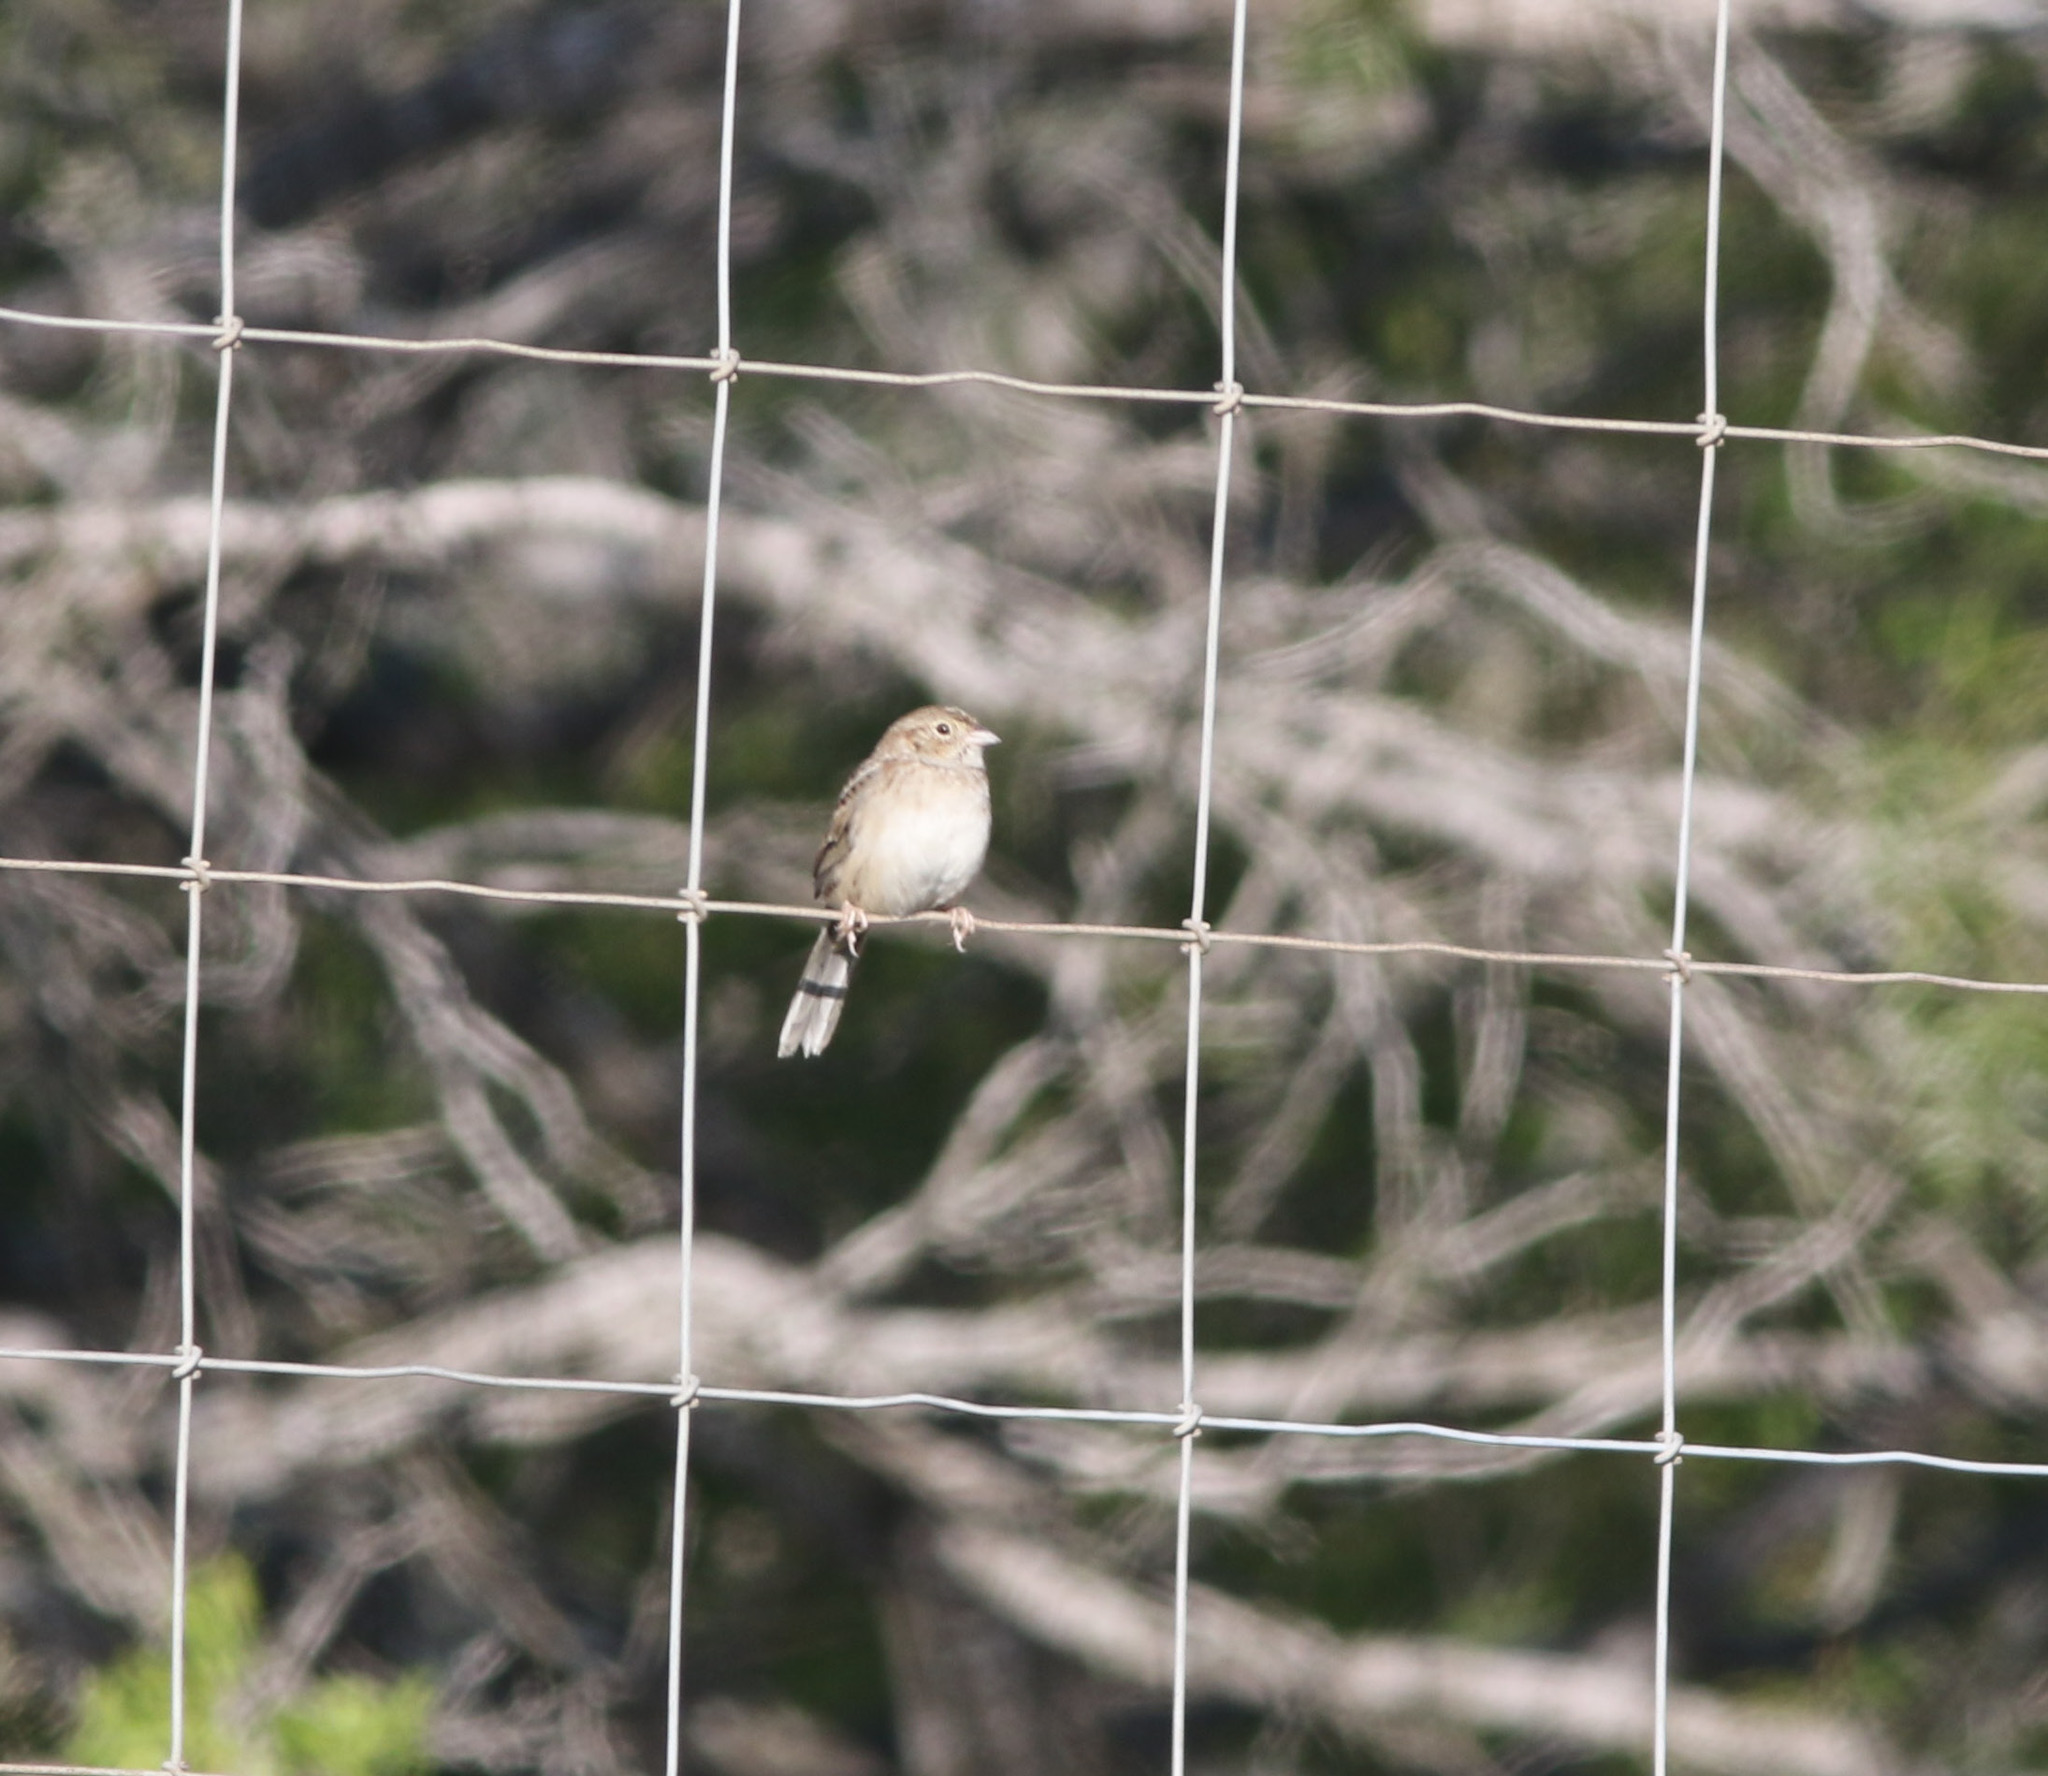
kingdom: Animalia
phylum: Chordata
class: Aves
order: Passeriformes
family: Passerellidae
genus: Peucaea
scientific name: Peucaea cassinii
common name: Cassin's sparrow
